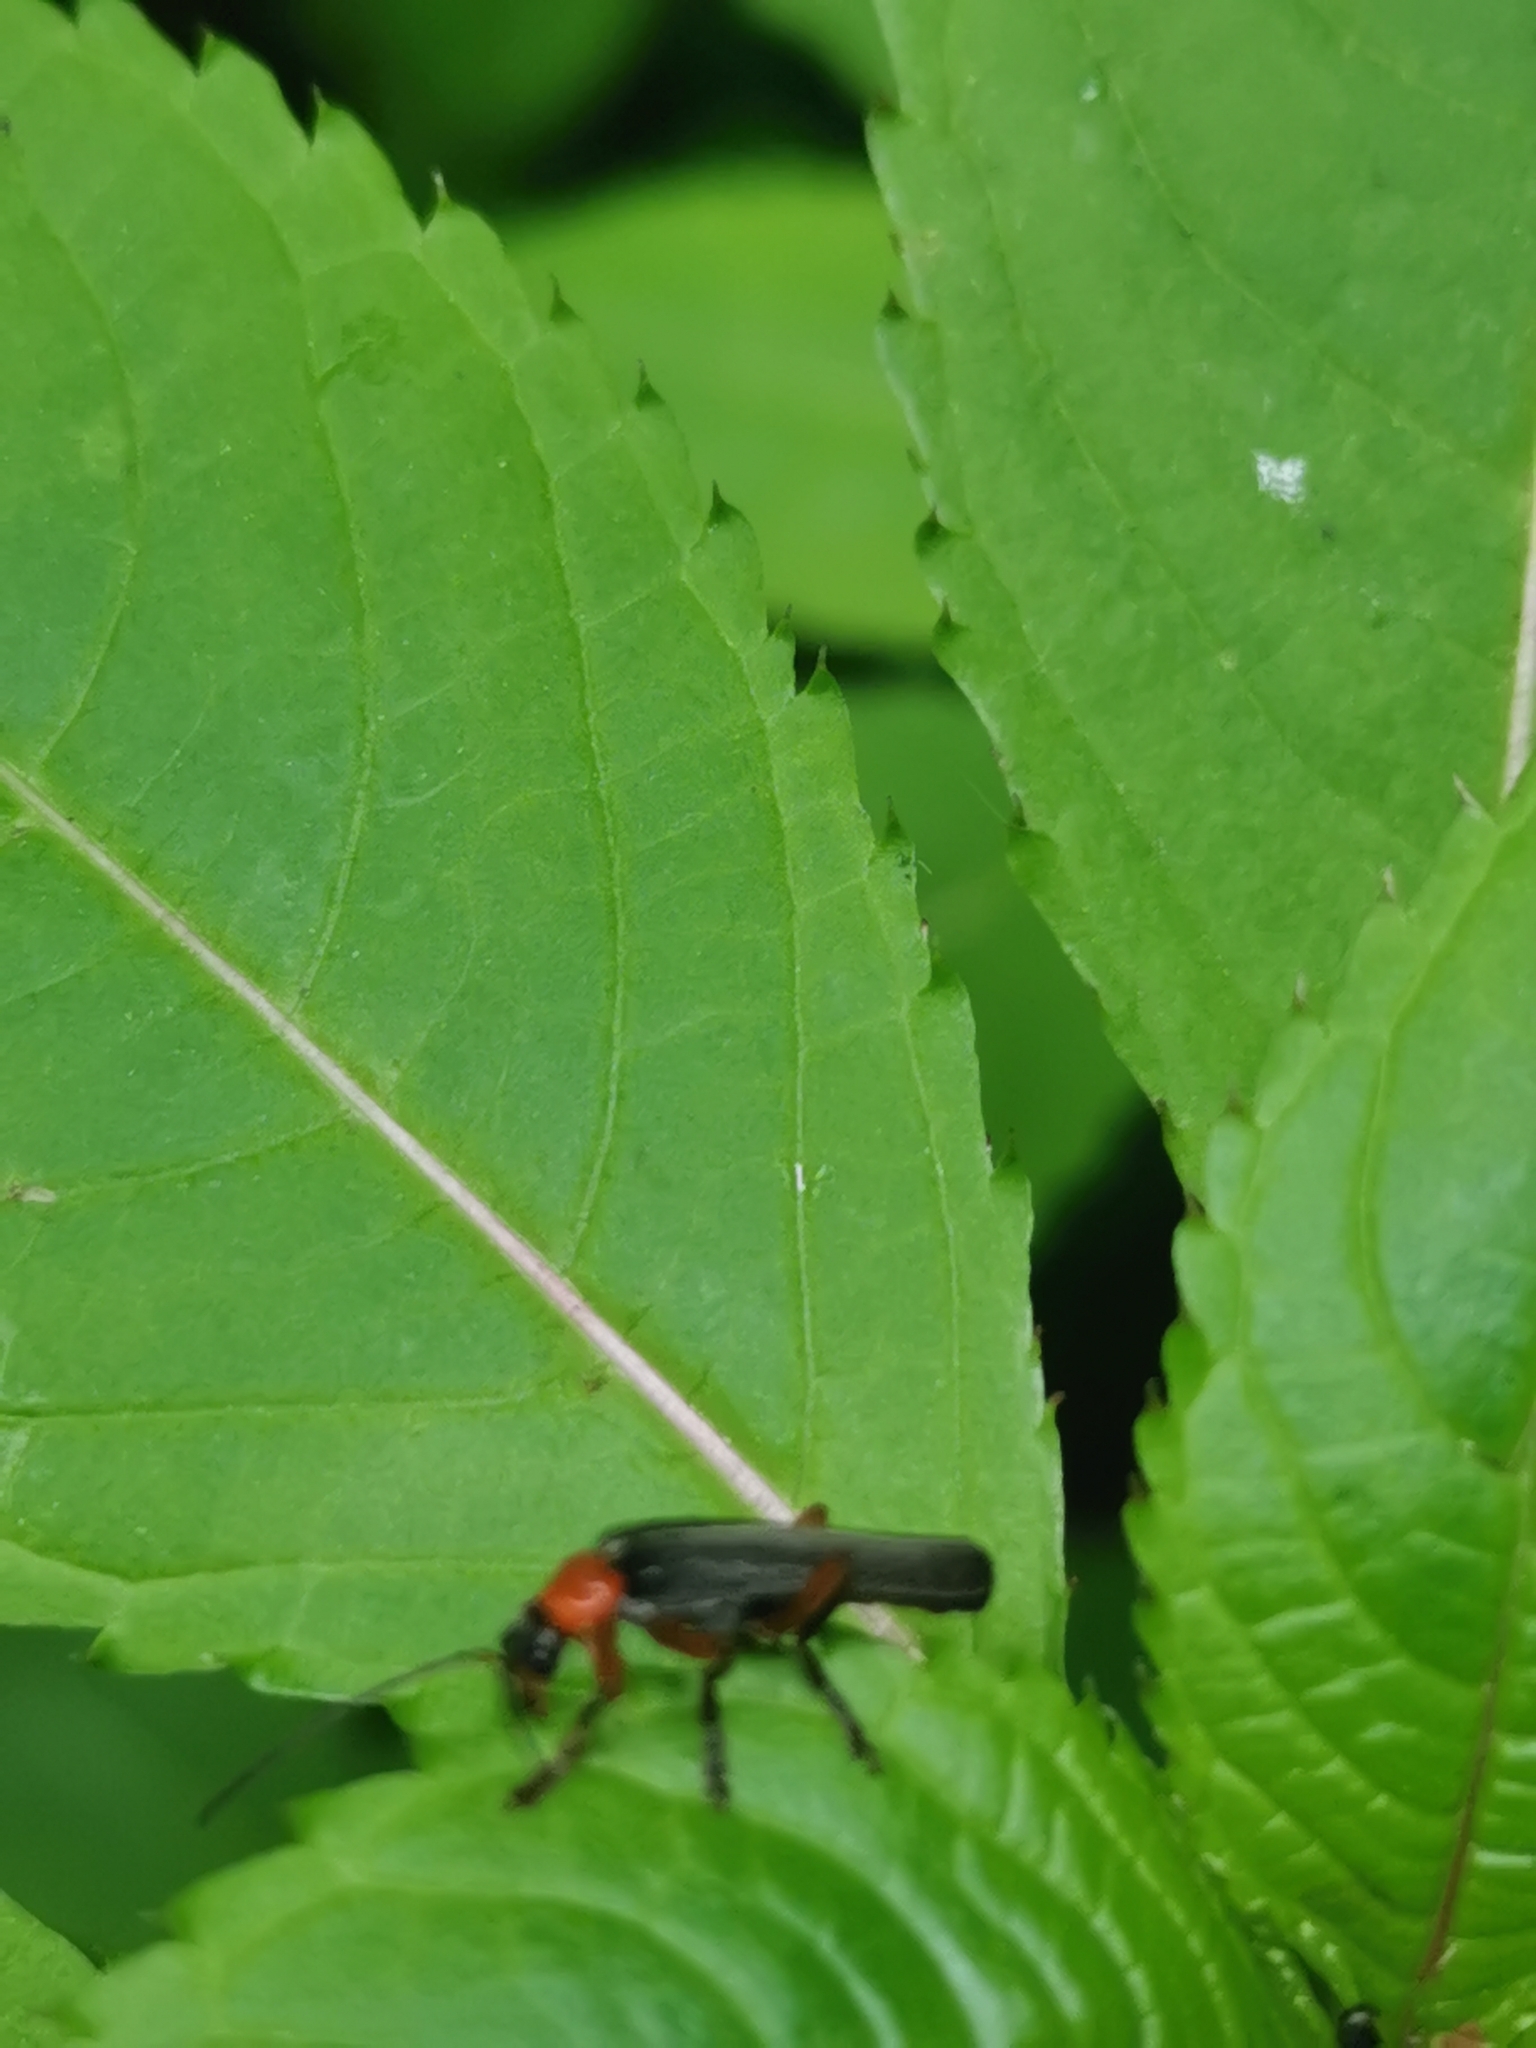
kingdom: Animalia
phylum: Arthropoda
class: Insecta
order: Coleoptera
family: Cantharidae
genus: Cantharis
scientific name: Cantharis pellucida
